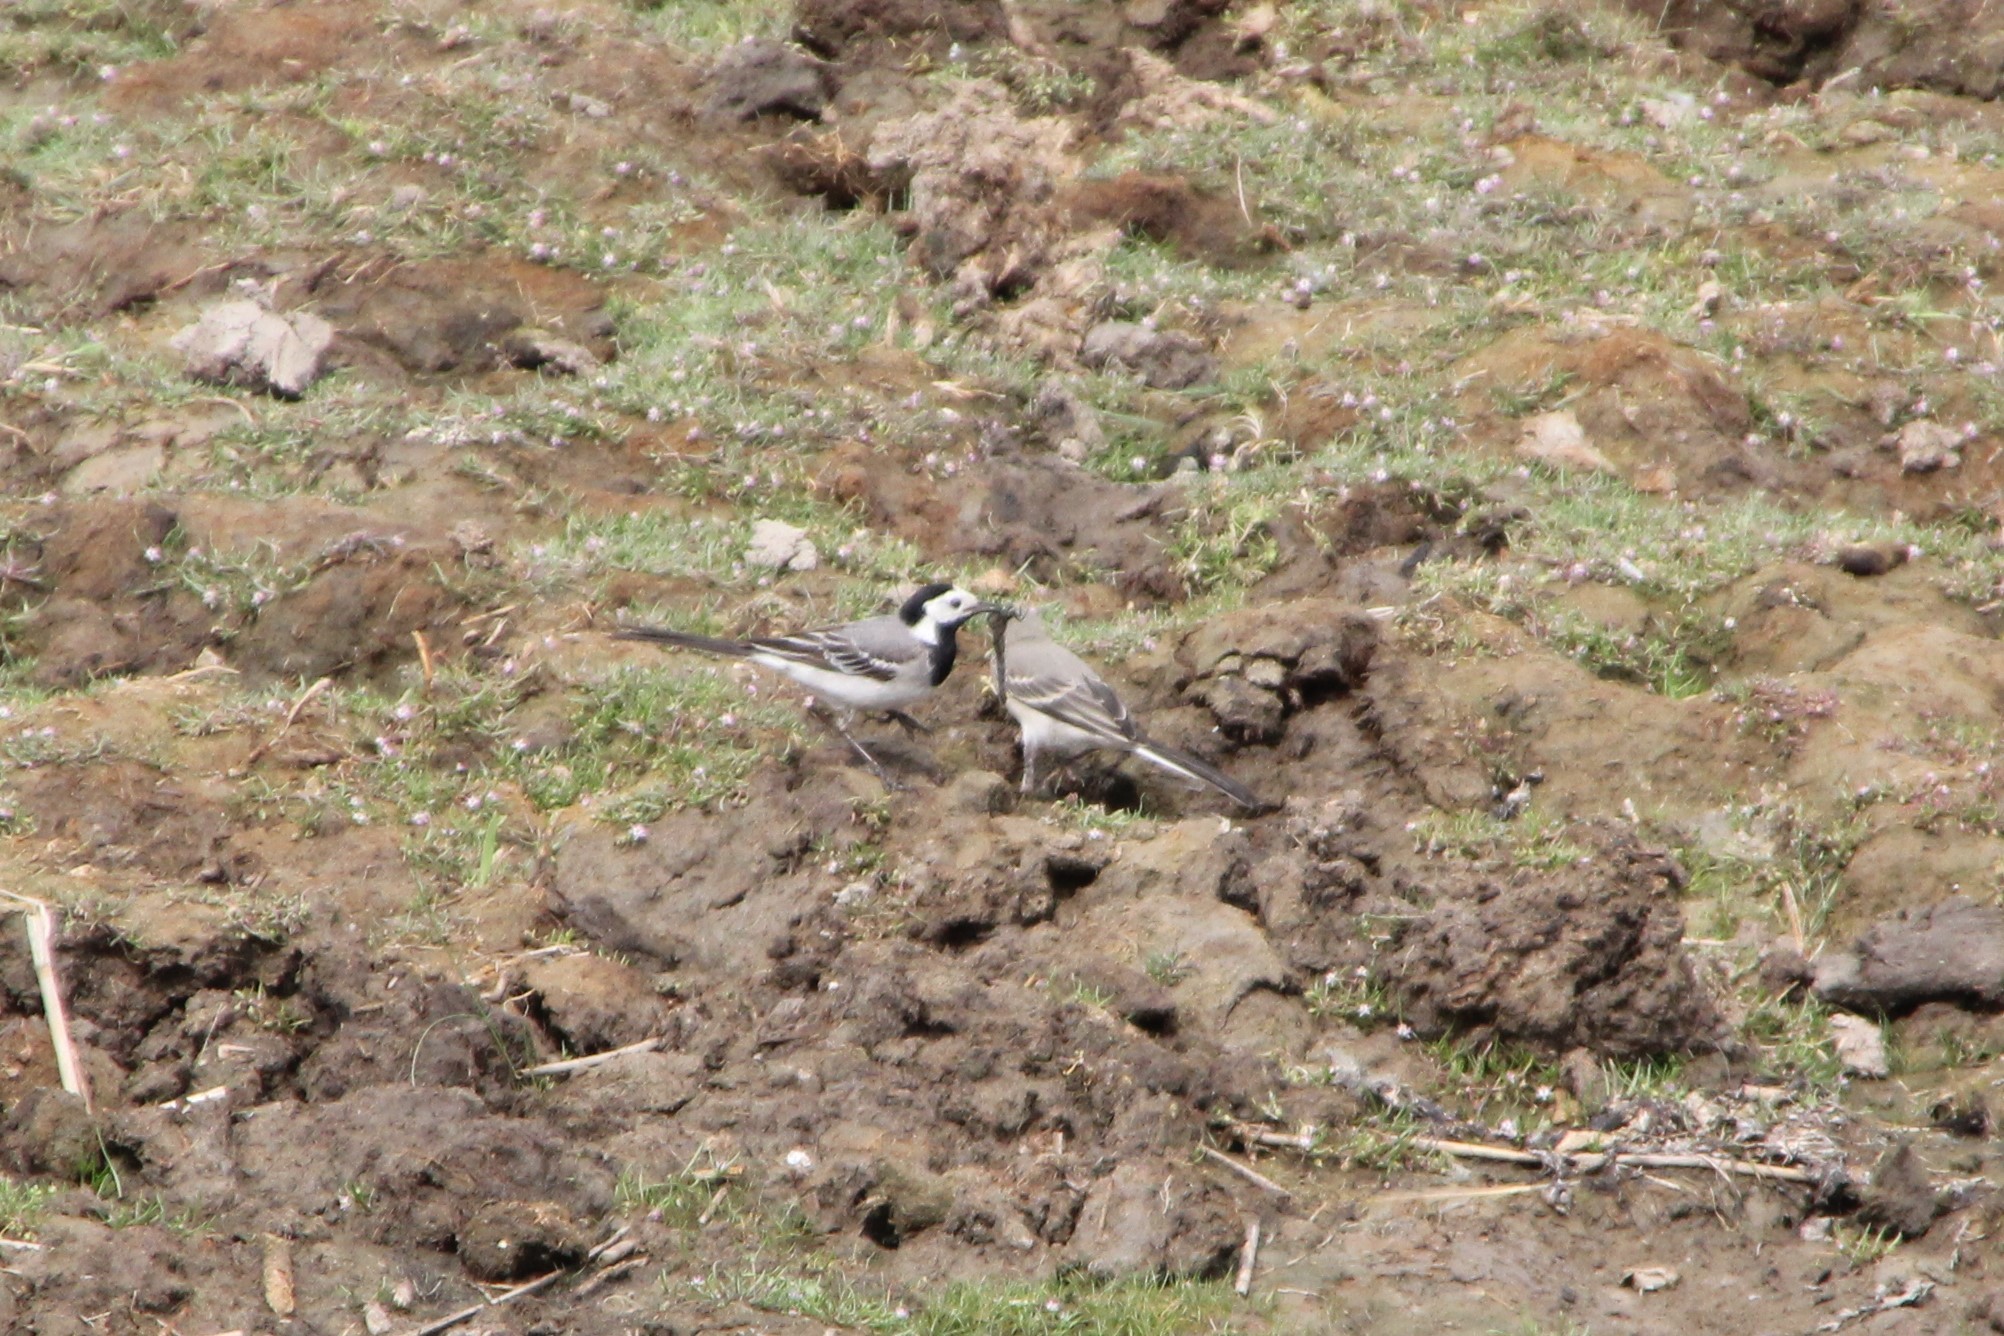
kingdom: Animalia
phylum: Chordata
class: Aves
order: Passeriformes
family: Motacillidae
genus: Motacilla
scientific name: Motacilla alba
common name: White wagtail
